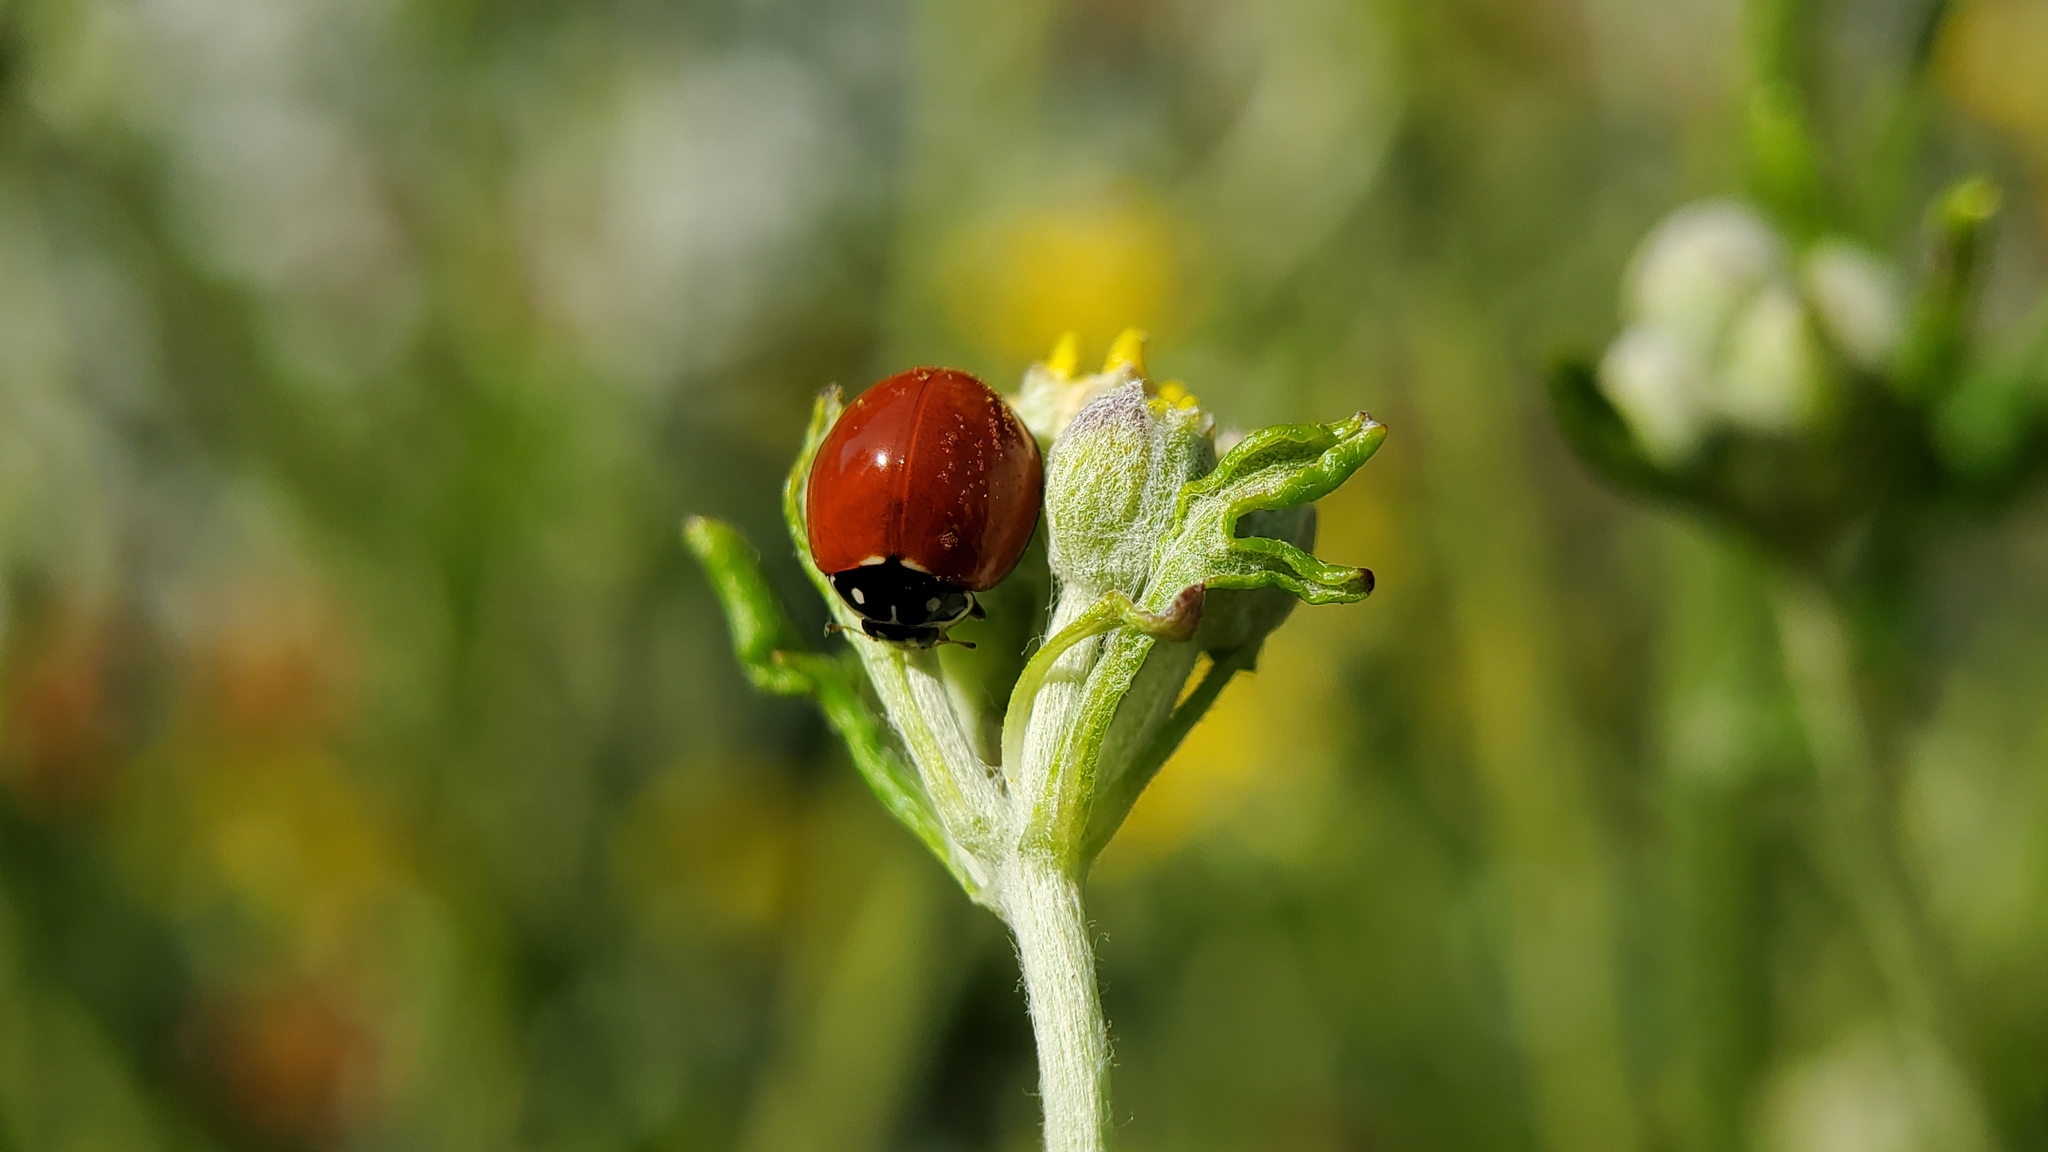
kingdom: Animalia
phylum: Arthropoda
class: Insecta
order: Coleoptera
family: Coccinellidae
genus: Cycloneda
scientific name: Cycloneda sanguinea
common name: Ladybird beetle
